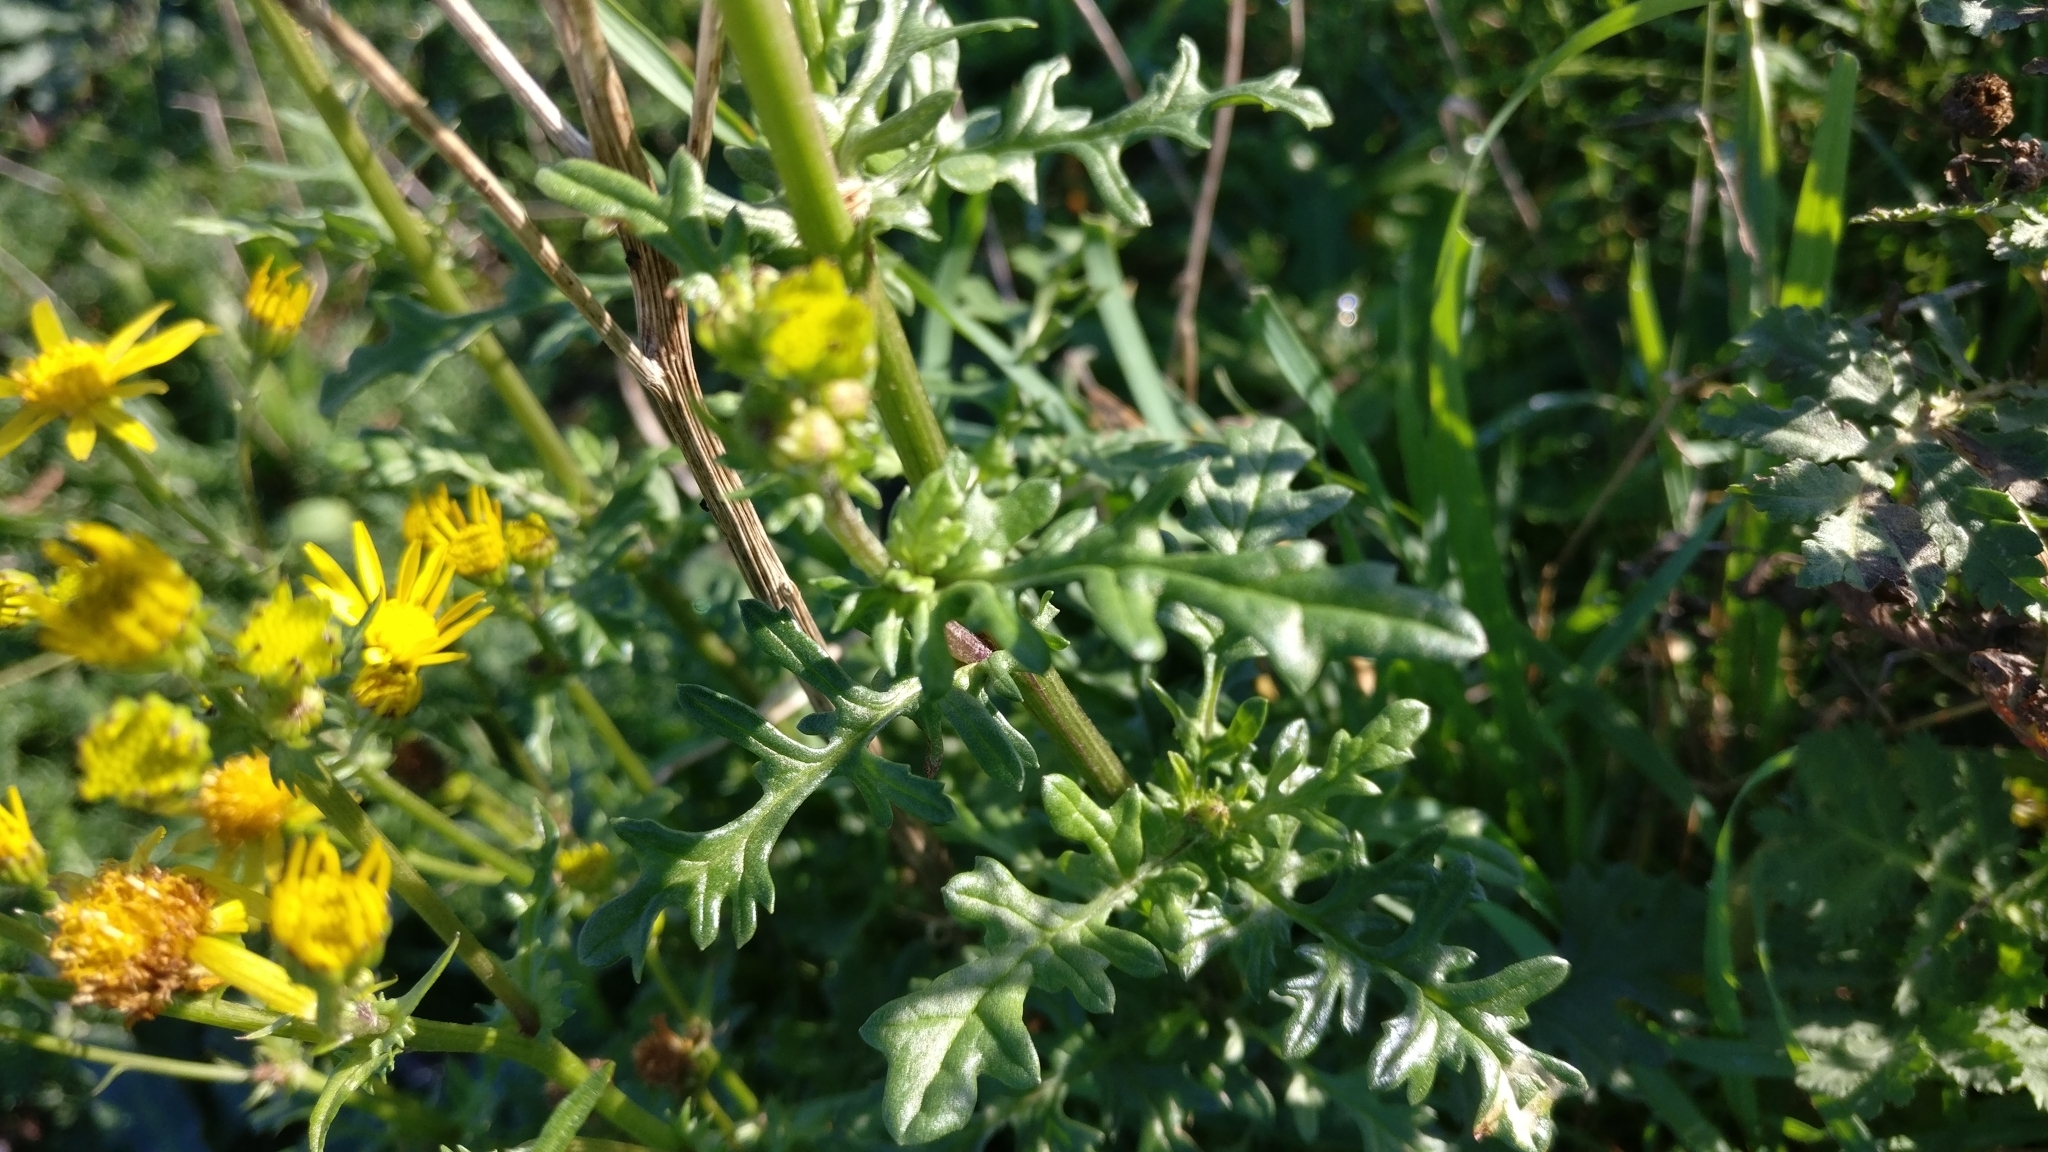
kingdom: Plantae
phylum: Tracheophyta
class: Magnoliopsida
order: Asterales
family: Asteraceae
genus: Jacobaea
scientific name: Jacobaea vulgaris
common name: Stinking willie
